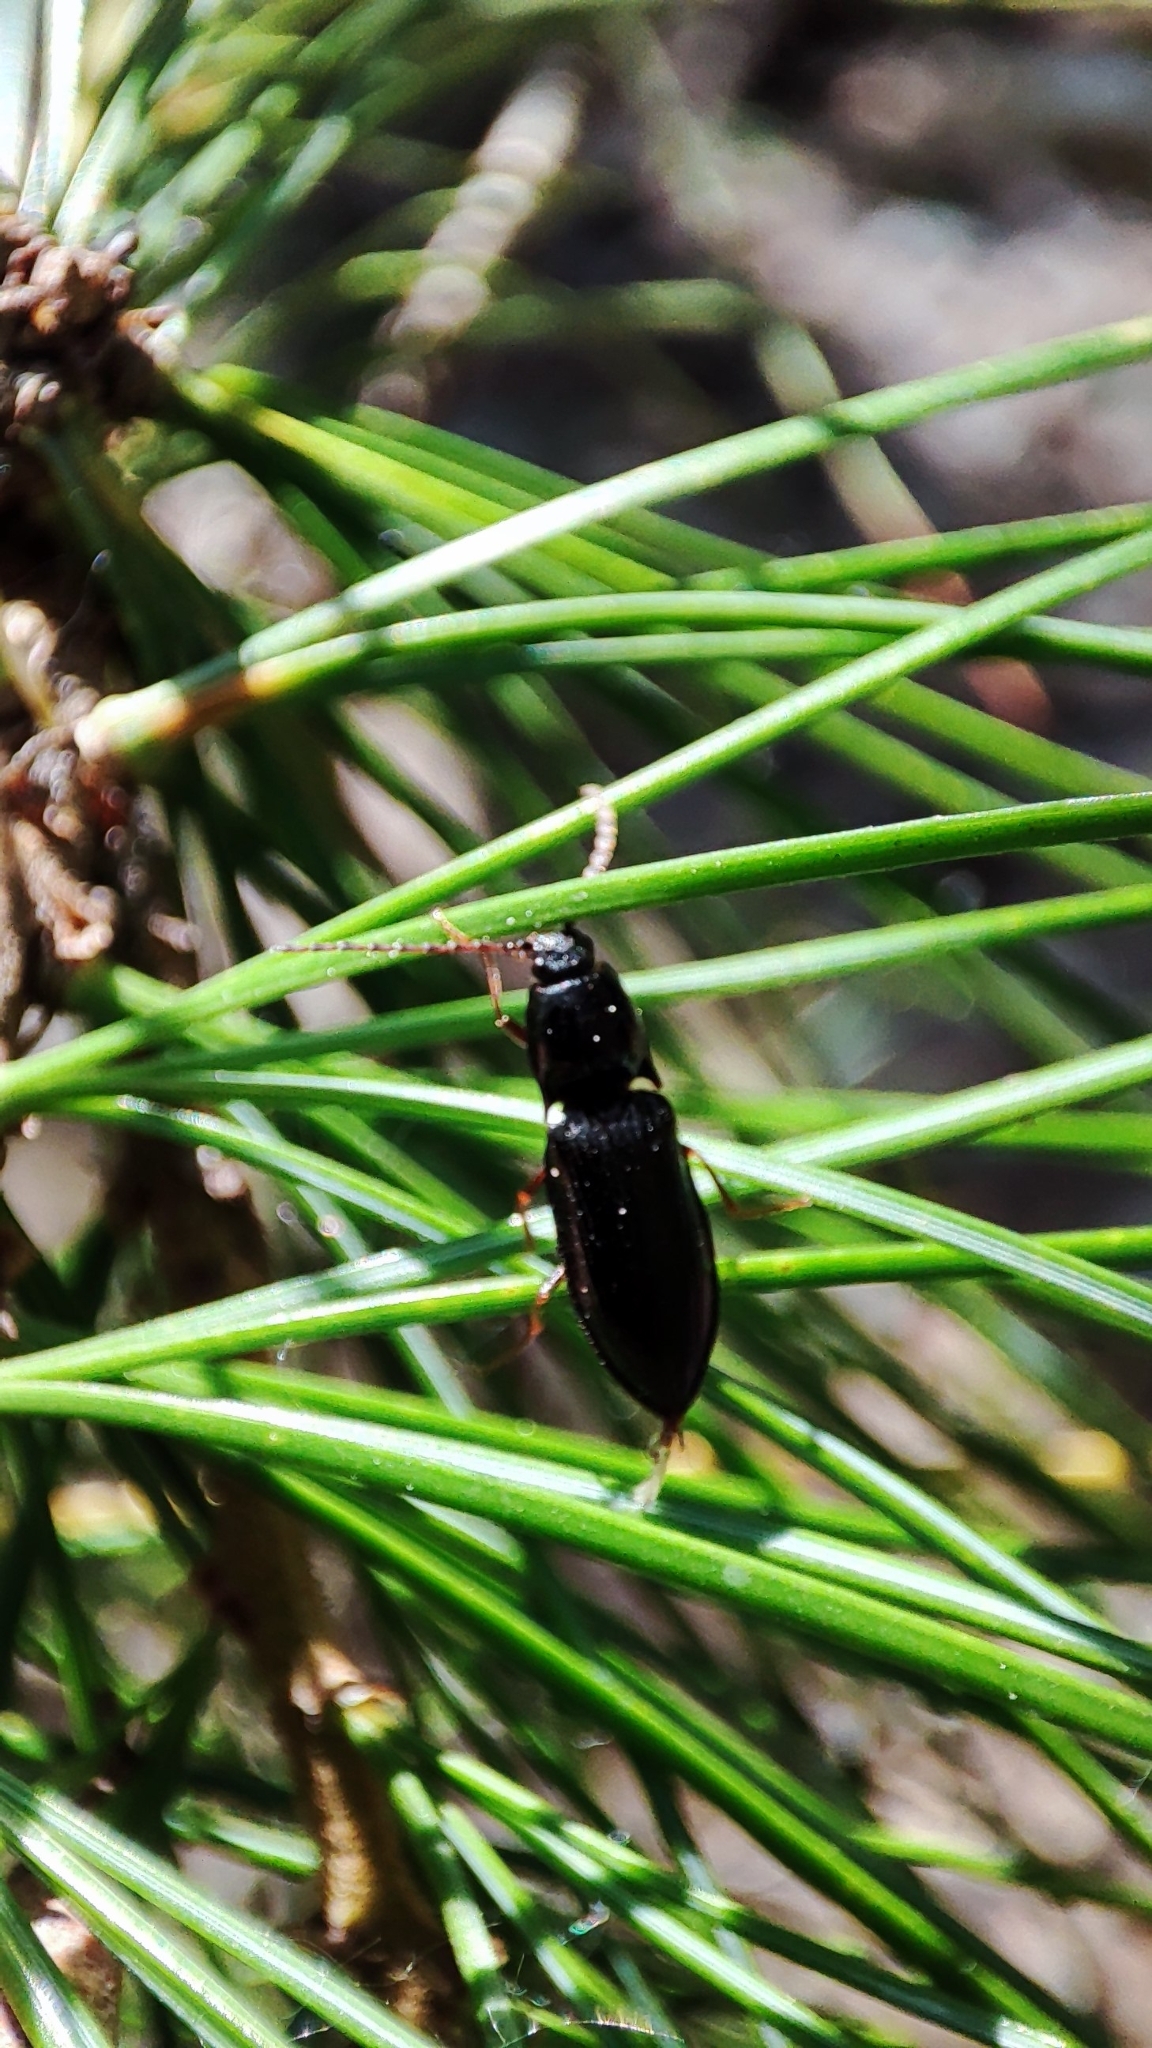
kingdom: Animalia
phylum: Arthropoda
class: Insecta
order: Coleoptera
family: Elateridae
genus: Hypoganomorphus
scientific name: Hypoganomorphus
